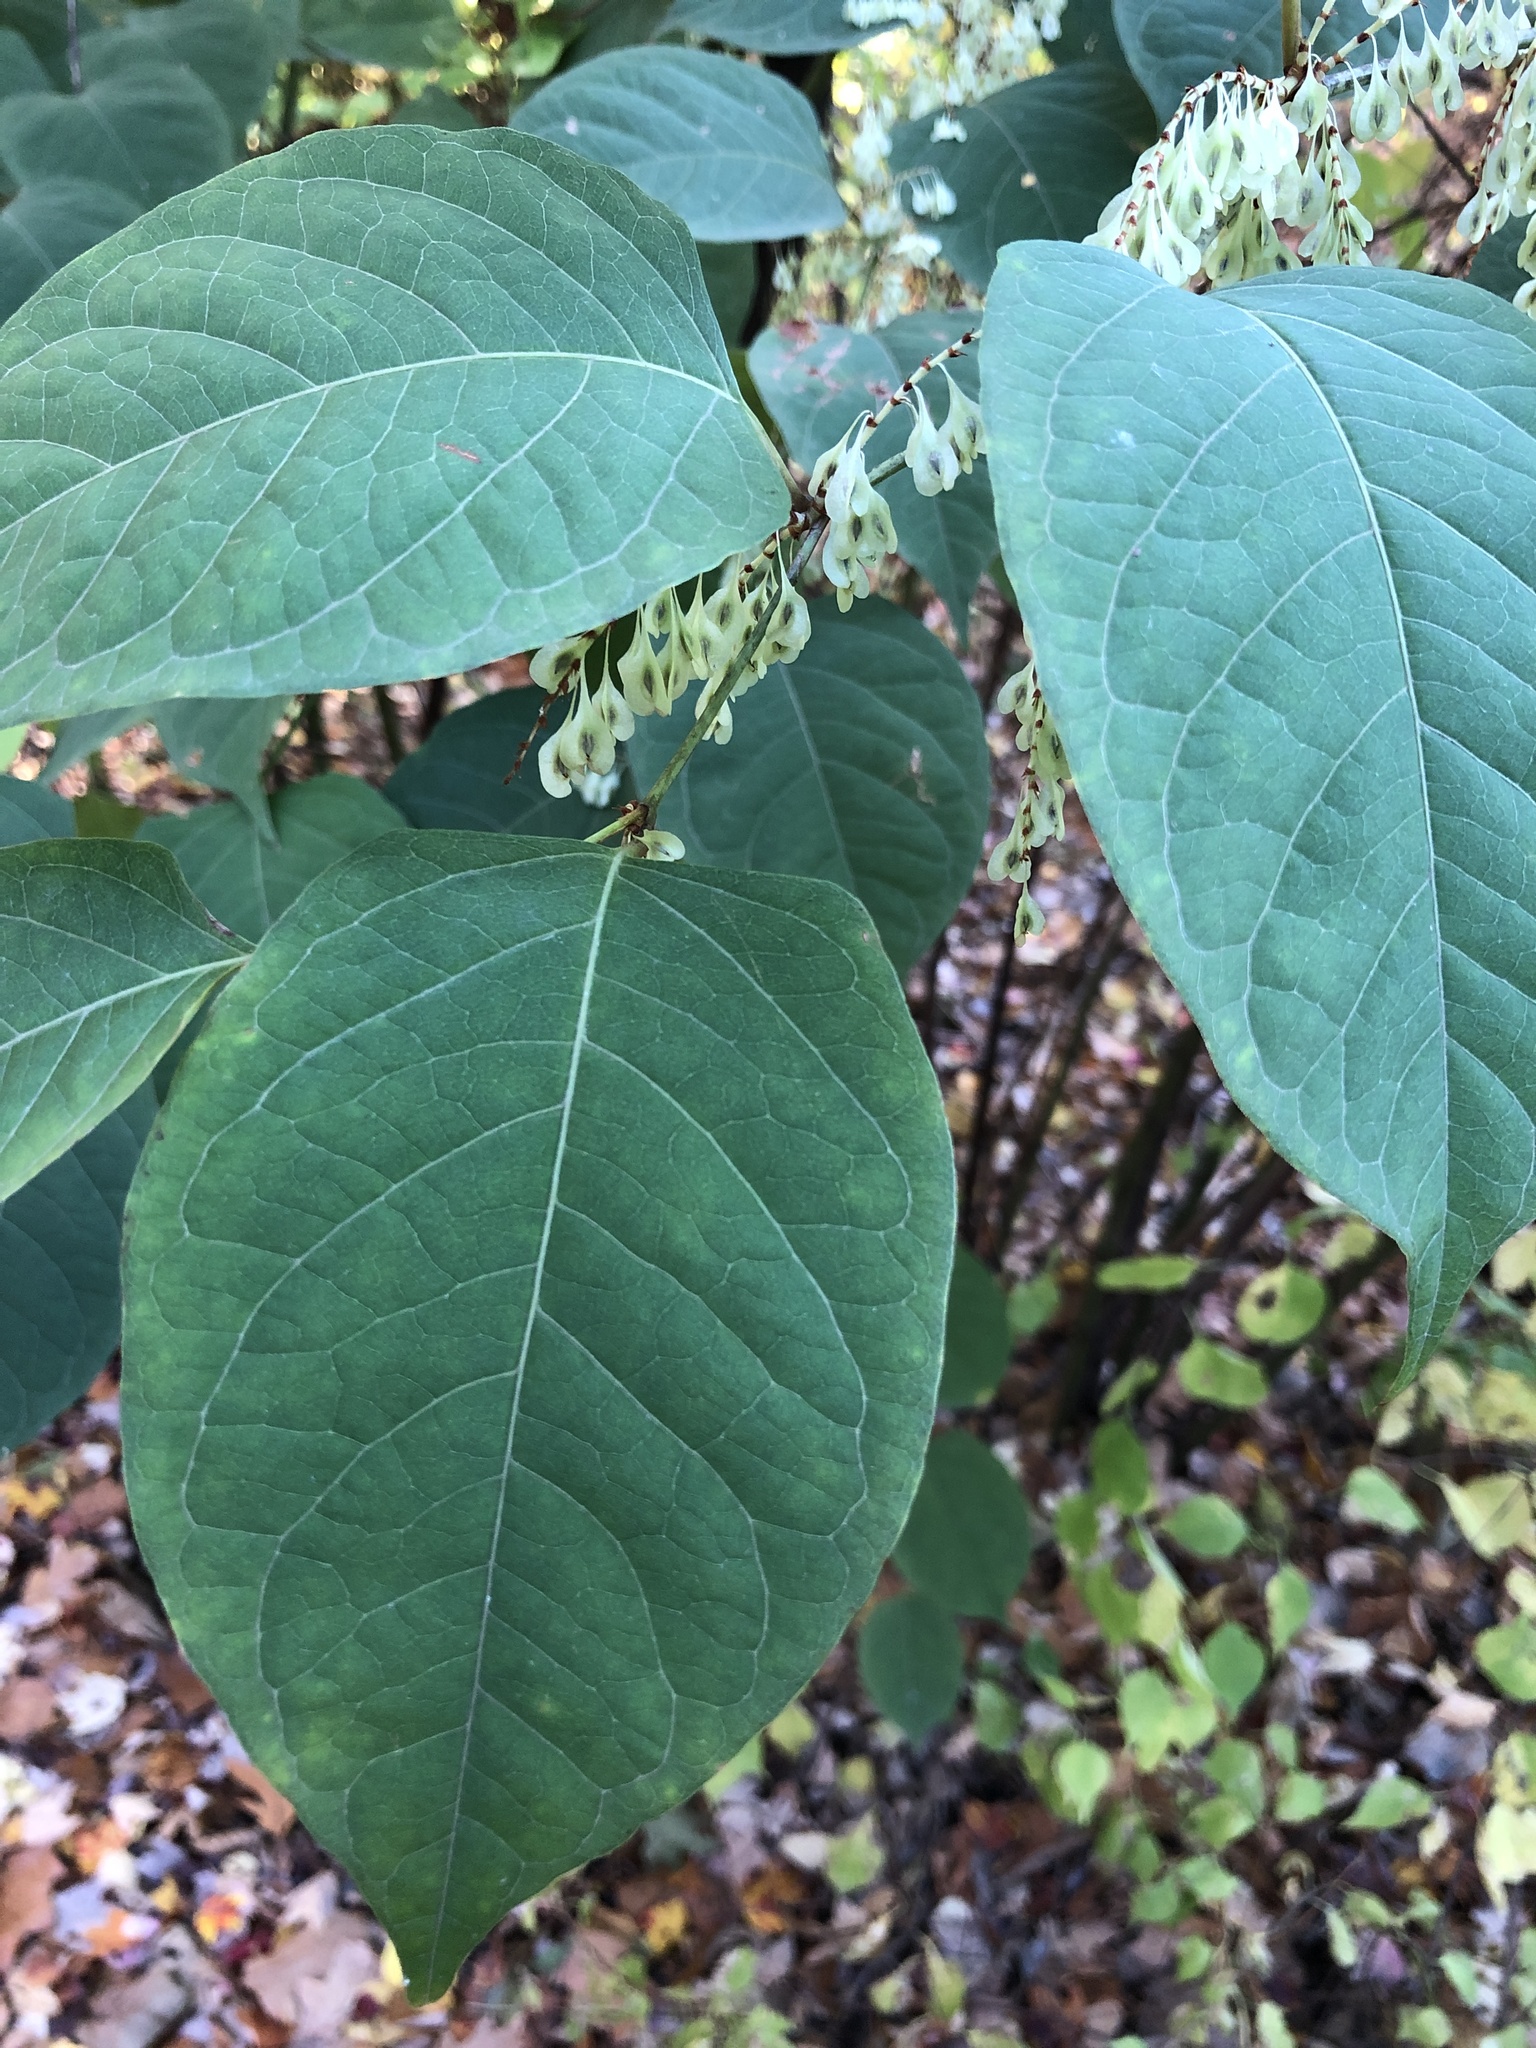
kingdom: Plantae
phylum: Tracheophyta
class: Magnoliopsida
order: Caryophyllales
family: Polygonaceae
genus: Reynoutria
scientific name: Reynoutria japonica
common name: Japanese knotweed
